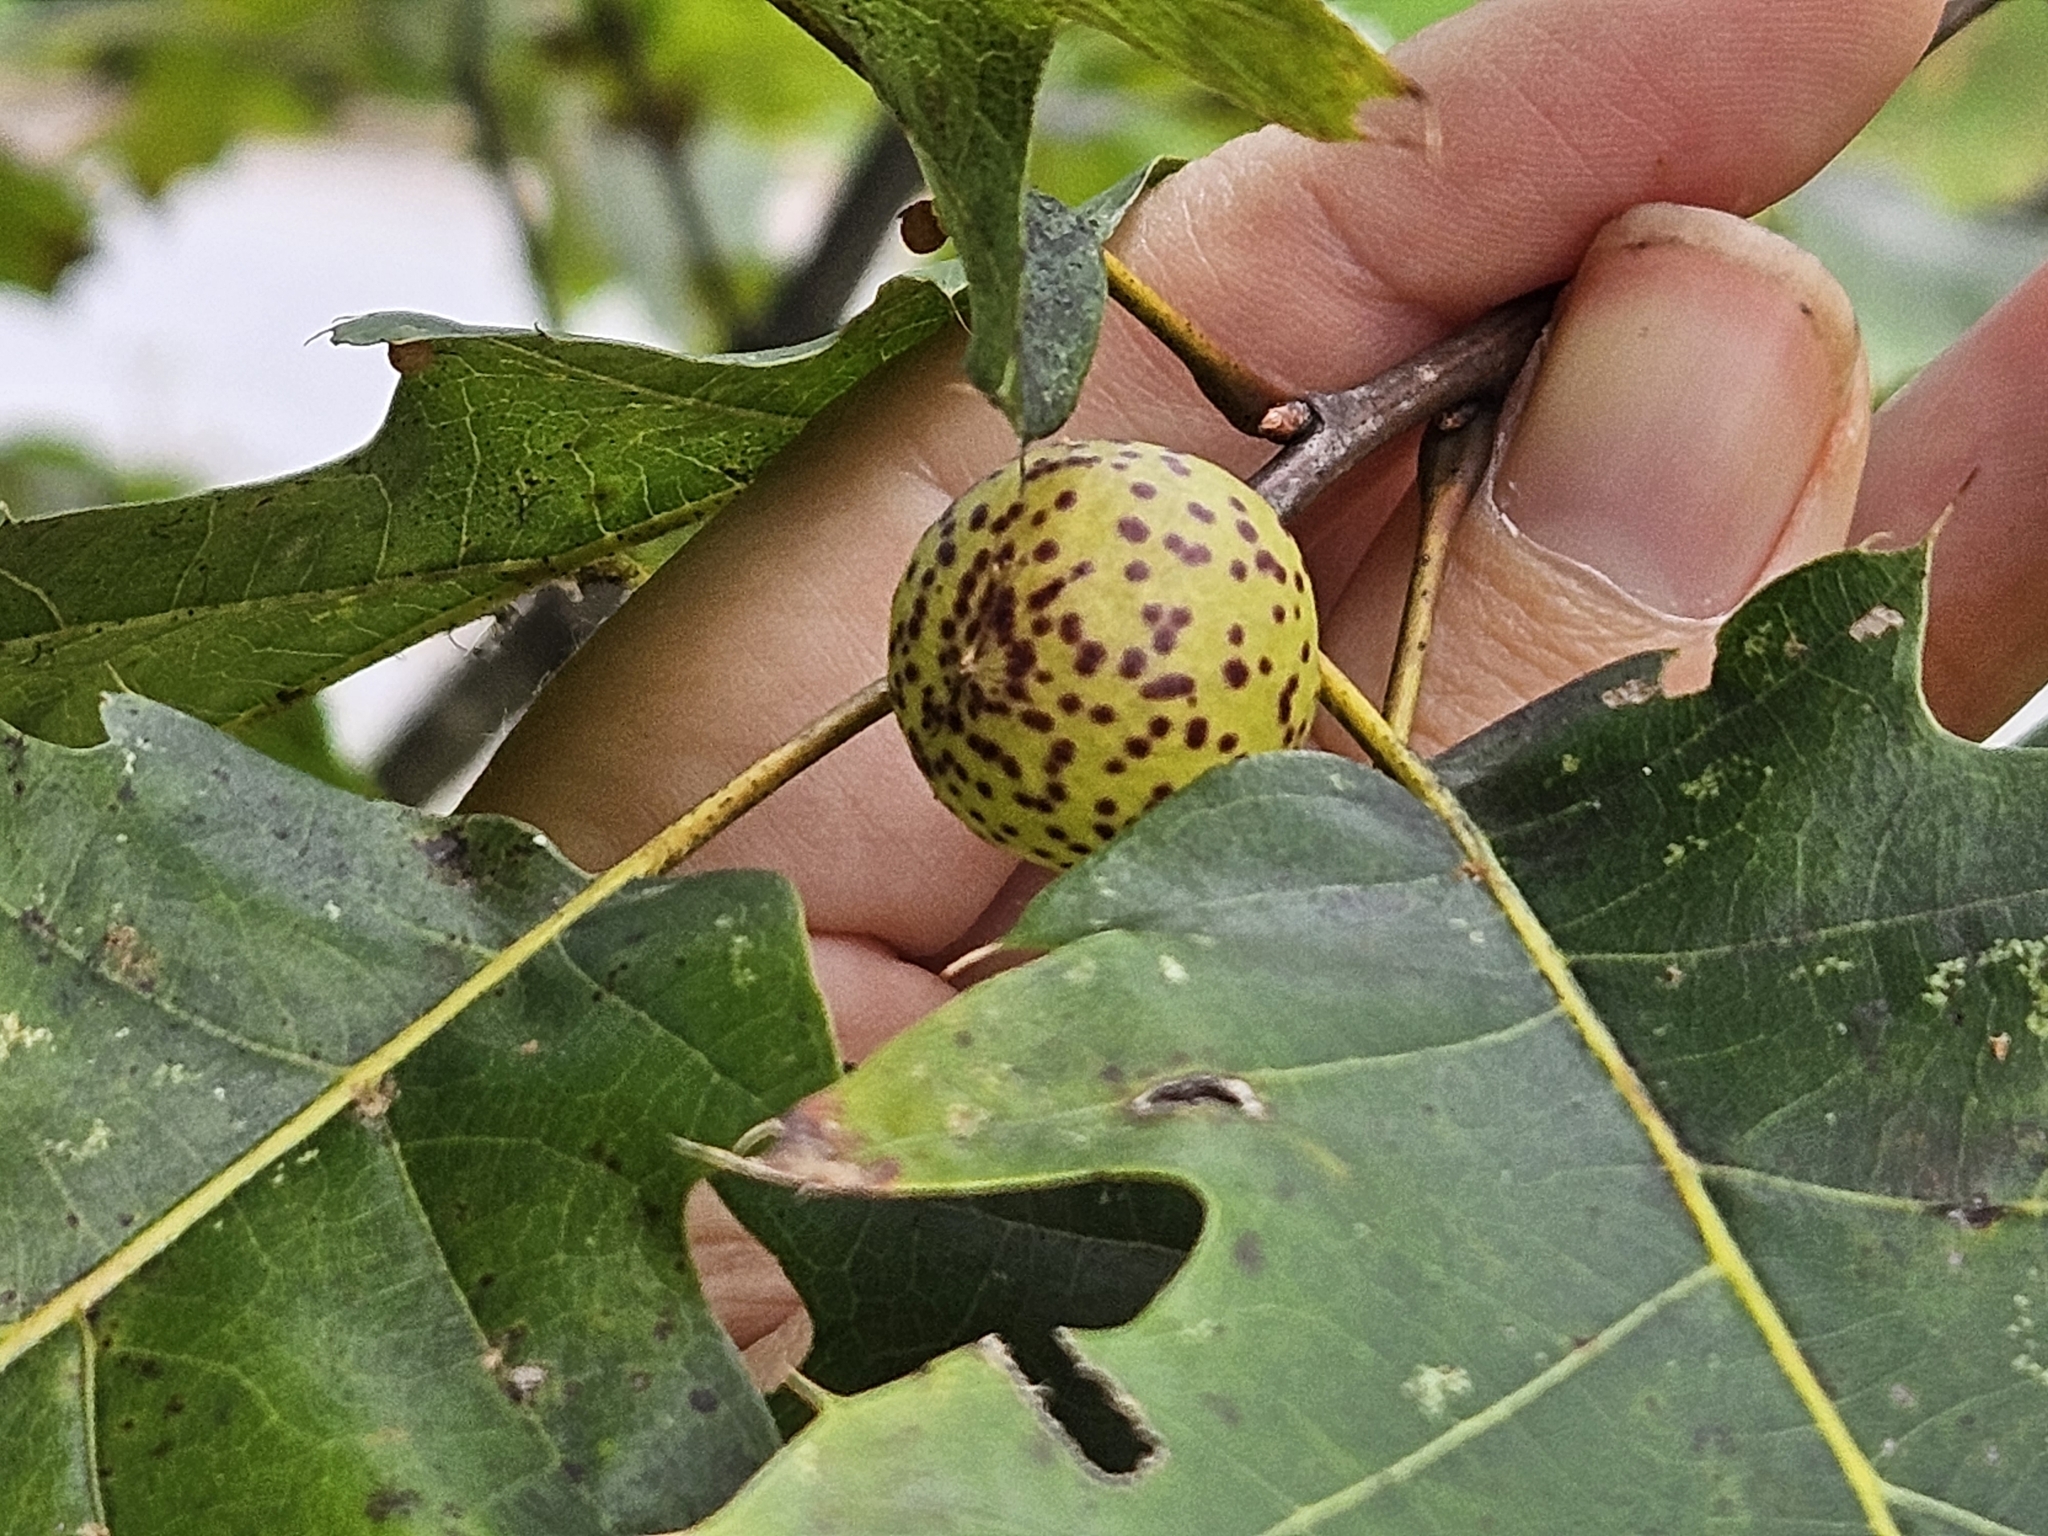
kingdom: Animalia
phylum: Arthropoda
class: Insecta
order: Hymenoptera
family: Cynipidae
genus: Amphibolips
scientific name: Amphibolips
